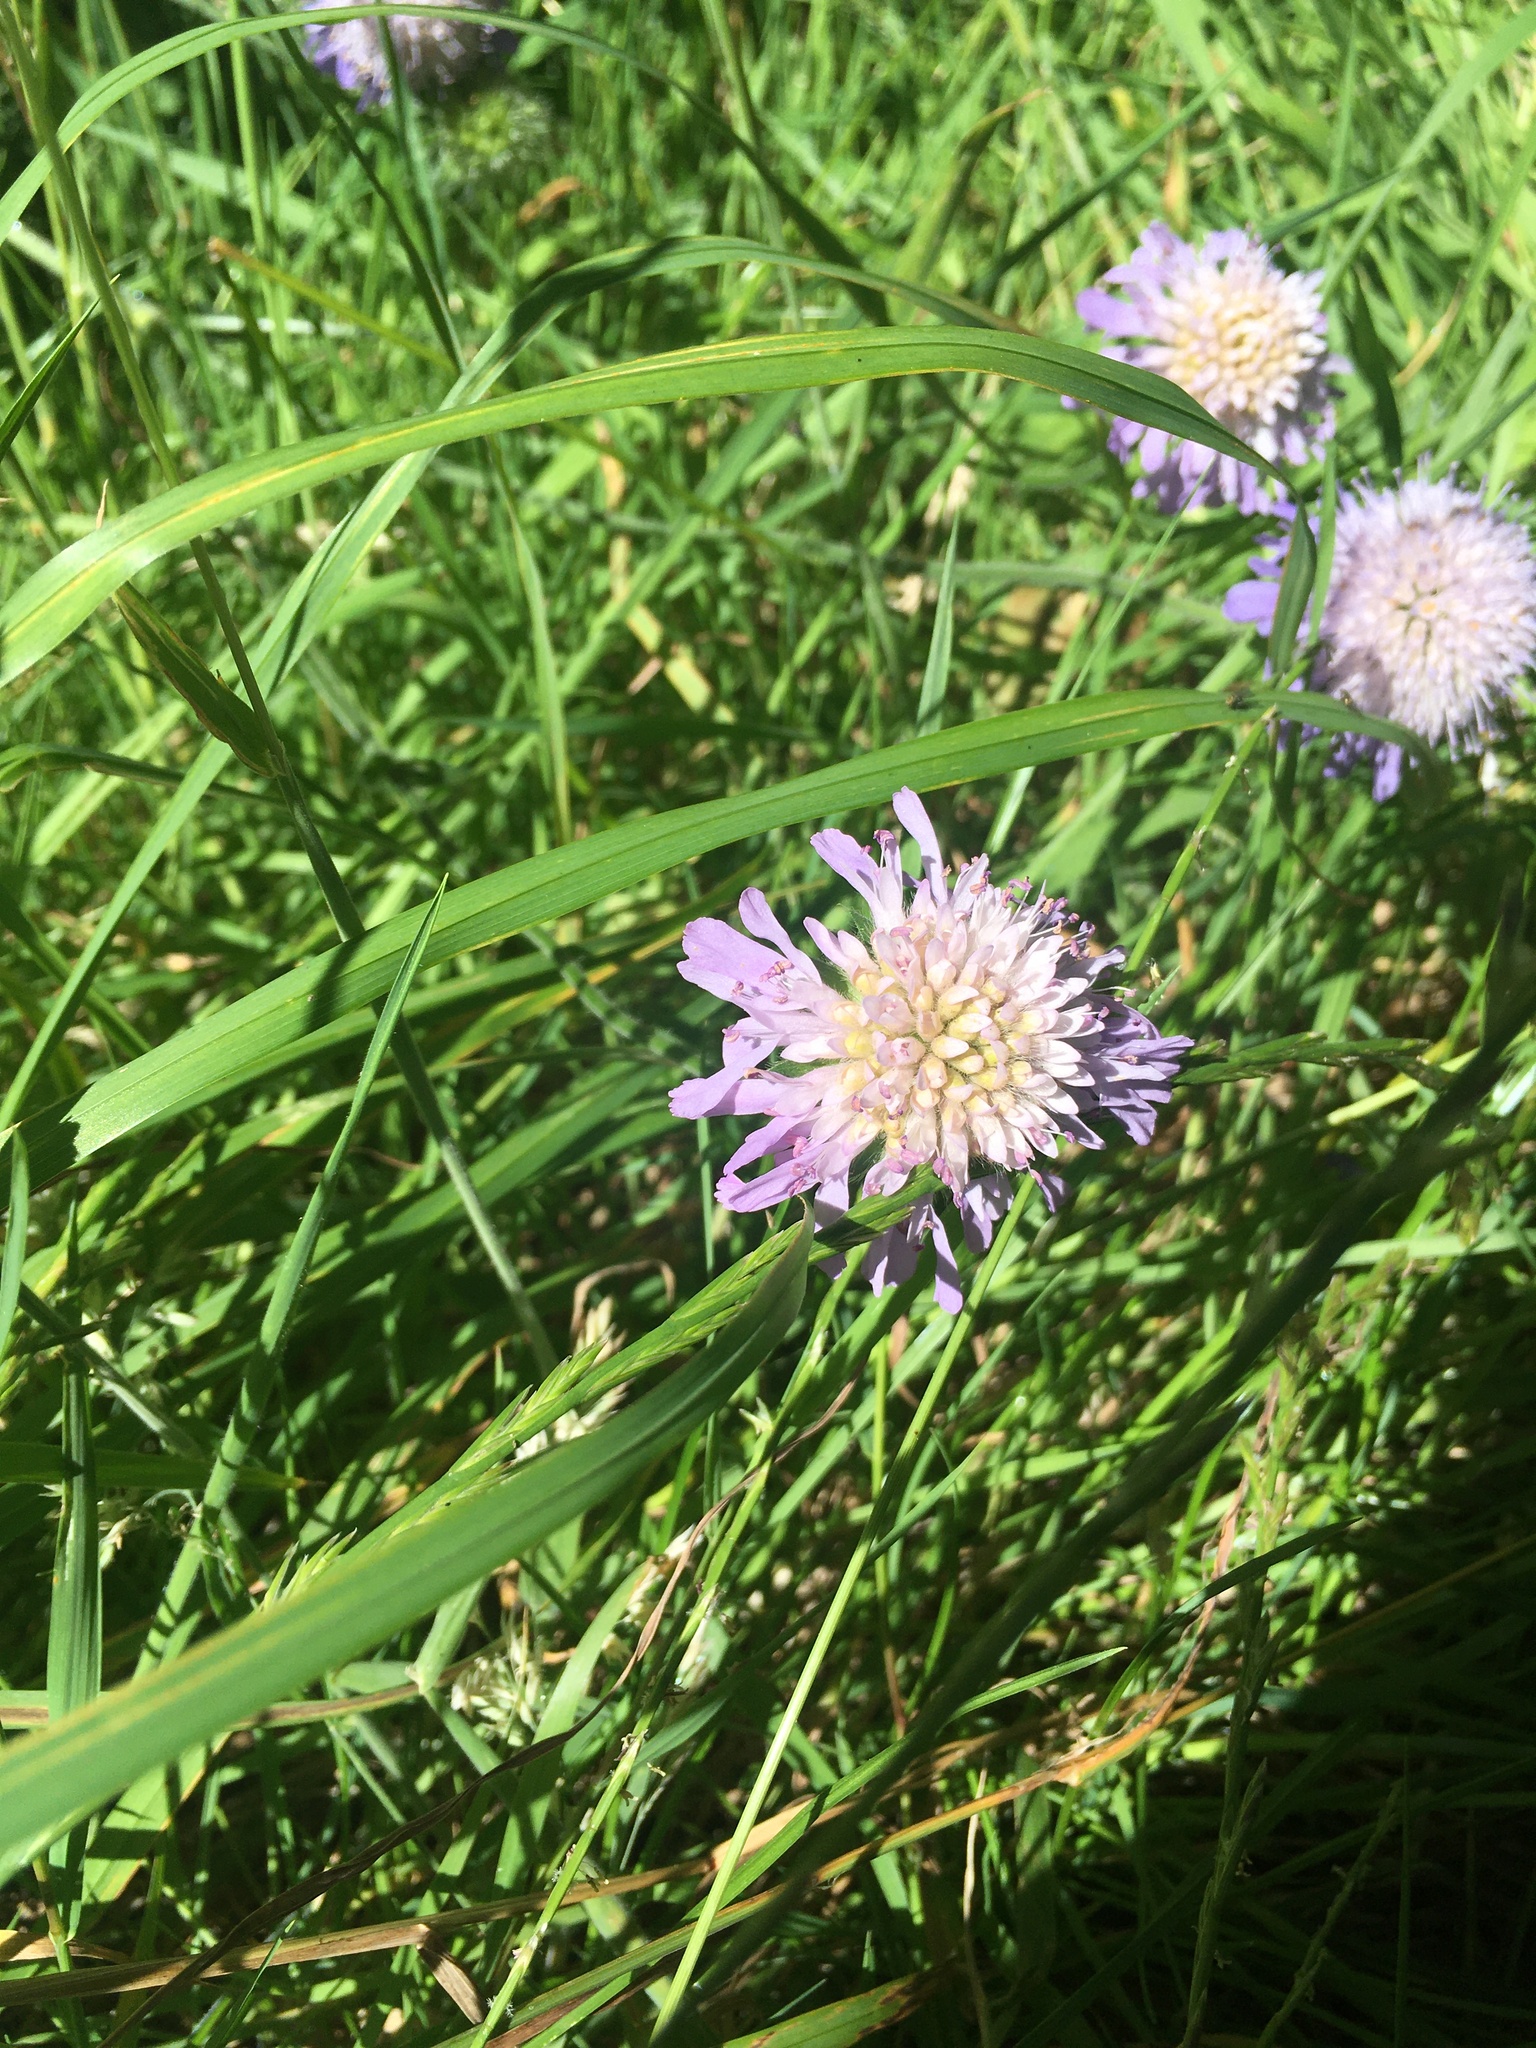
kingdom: Plantae
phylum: Tracheophyta
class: Magnoliopsida
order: Dipsacales
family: Caprifoliaceae
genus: Knautia
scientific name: Knautia arvensis
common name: Field scabiosa
